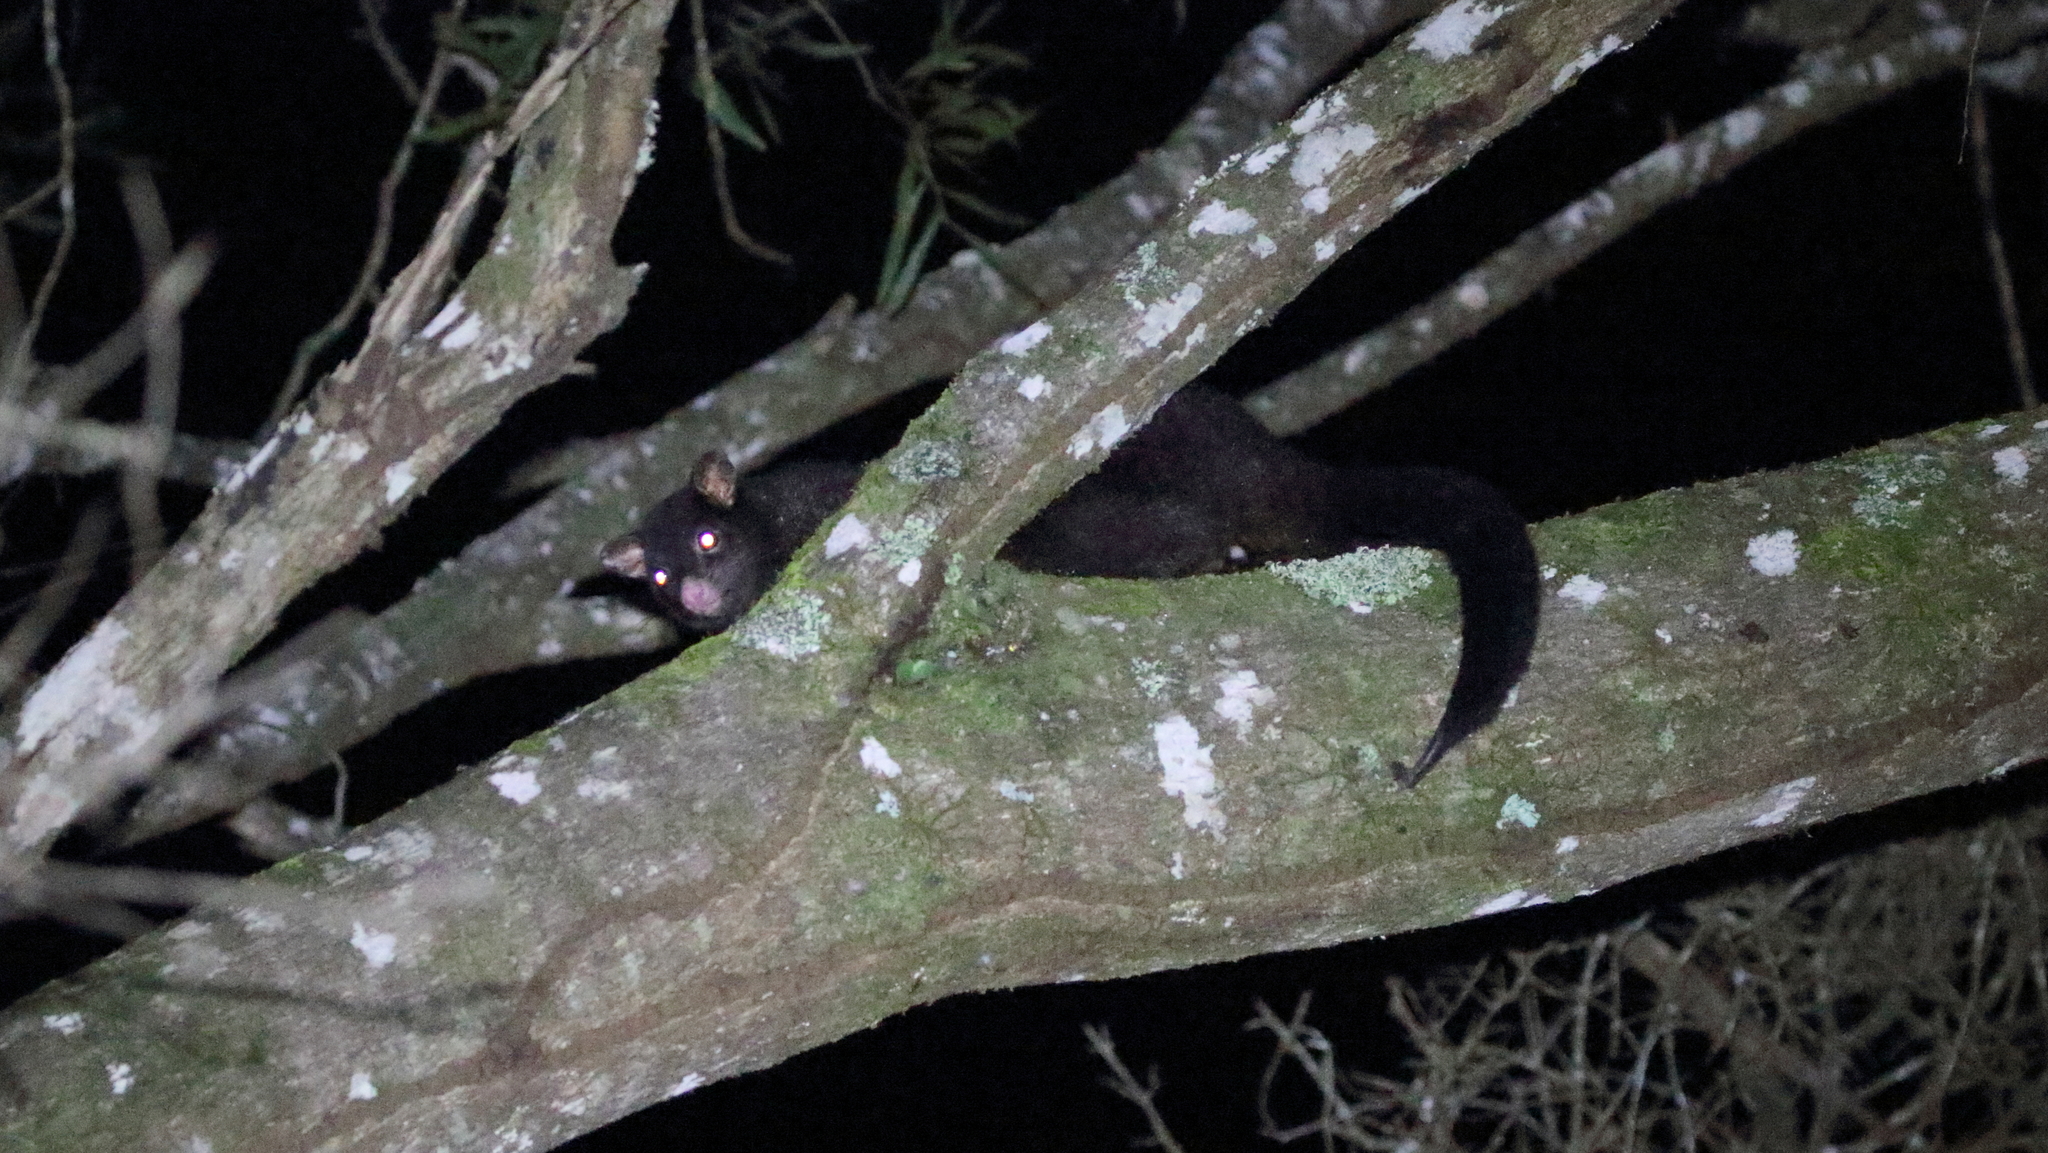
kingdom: Animalia
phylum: Chordata
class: Mammalia
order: Diprotodontia
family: Phalangeridae
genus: Trichosurus
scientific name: Trichosurus caninus
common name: Short-eared possum
